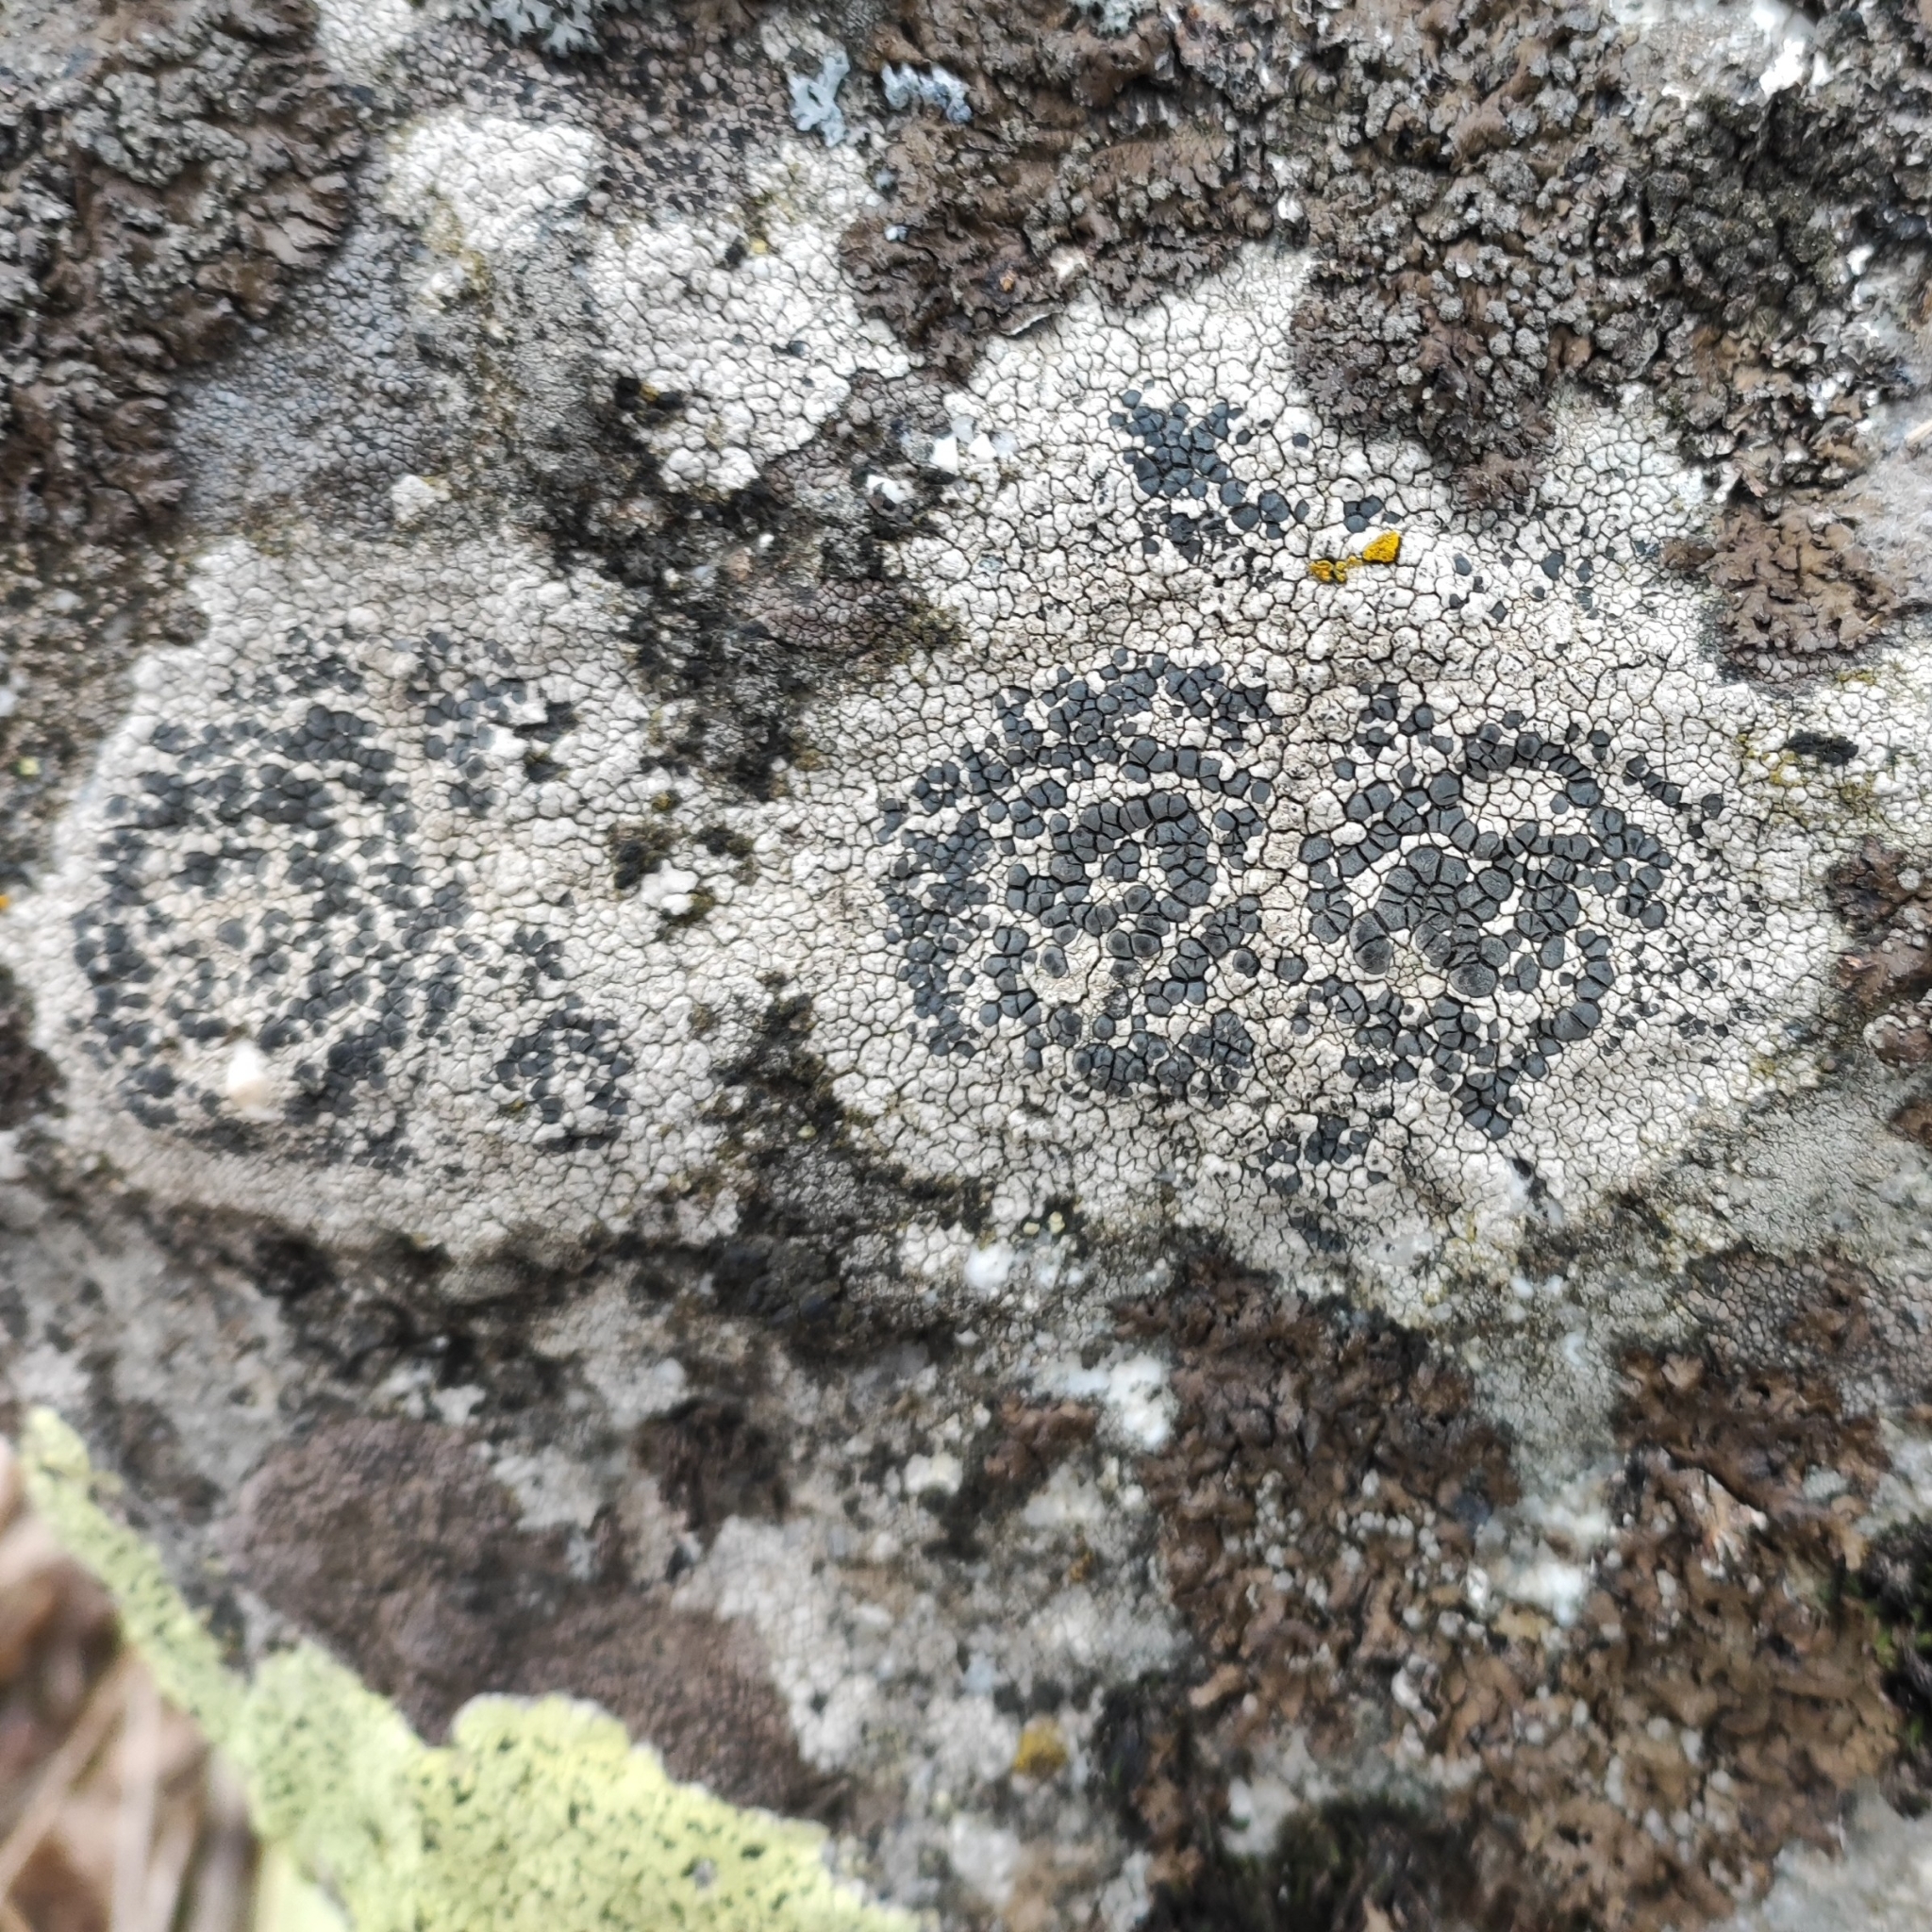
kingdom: Fungi
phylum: Ascomycota
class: Lecanoromycetes
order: Lecideales
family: Lecideaceae
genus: Lecidea
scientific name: Lecidea tessellata
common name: Tile lichen
